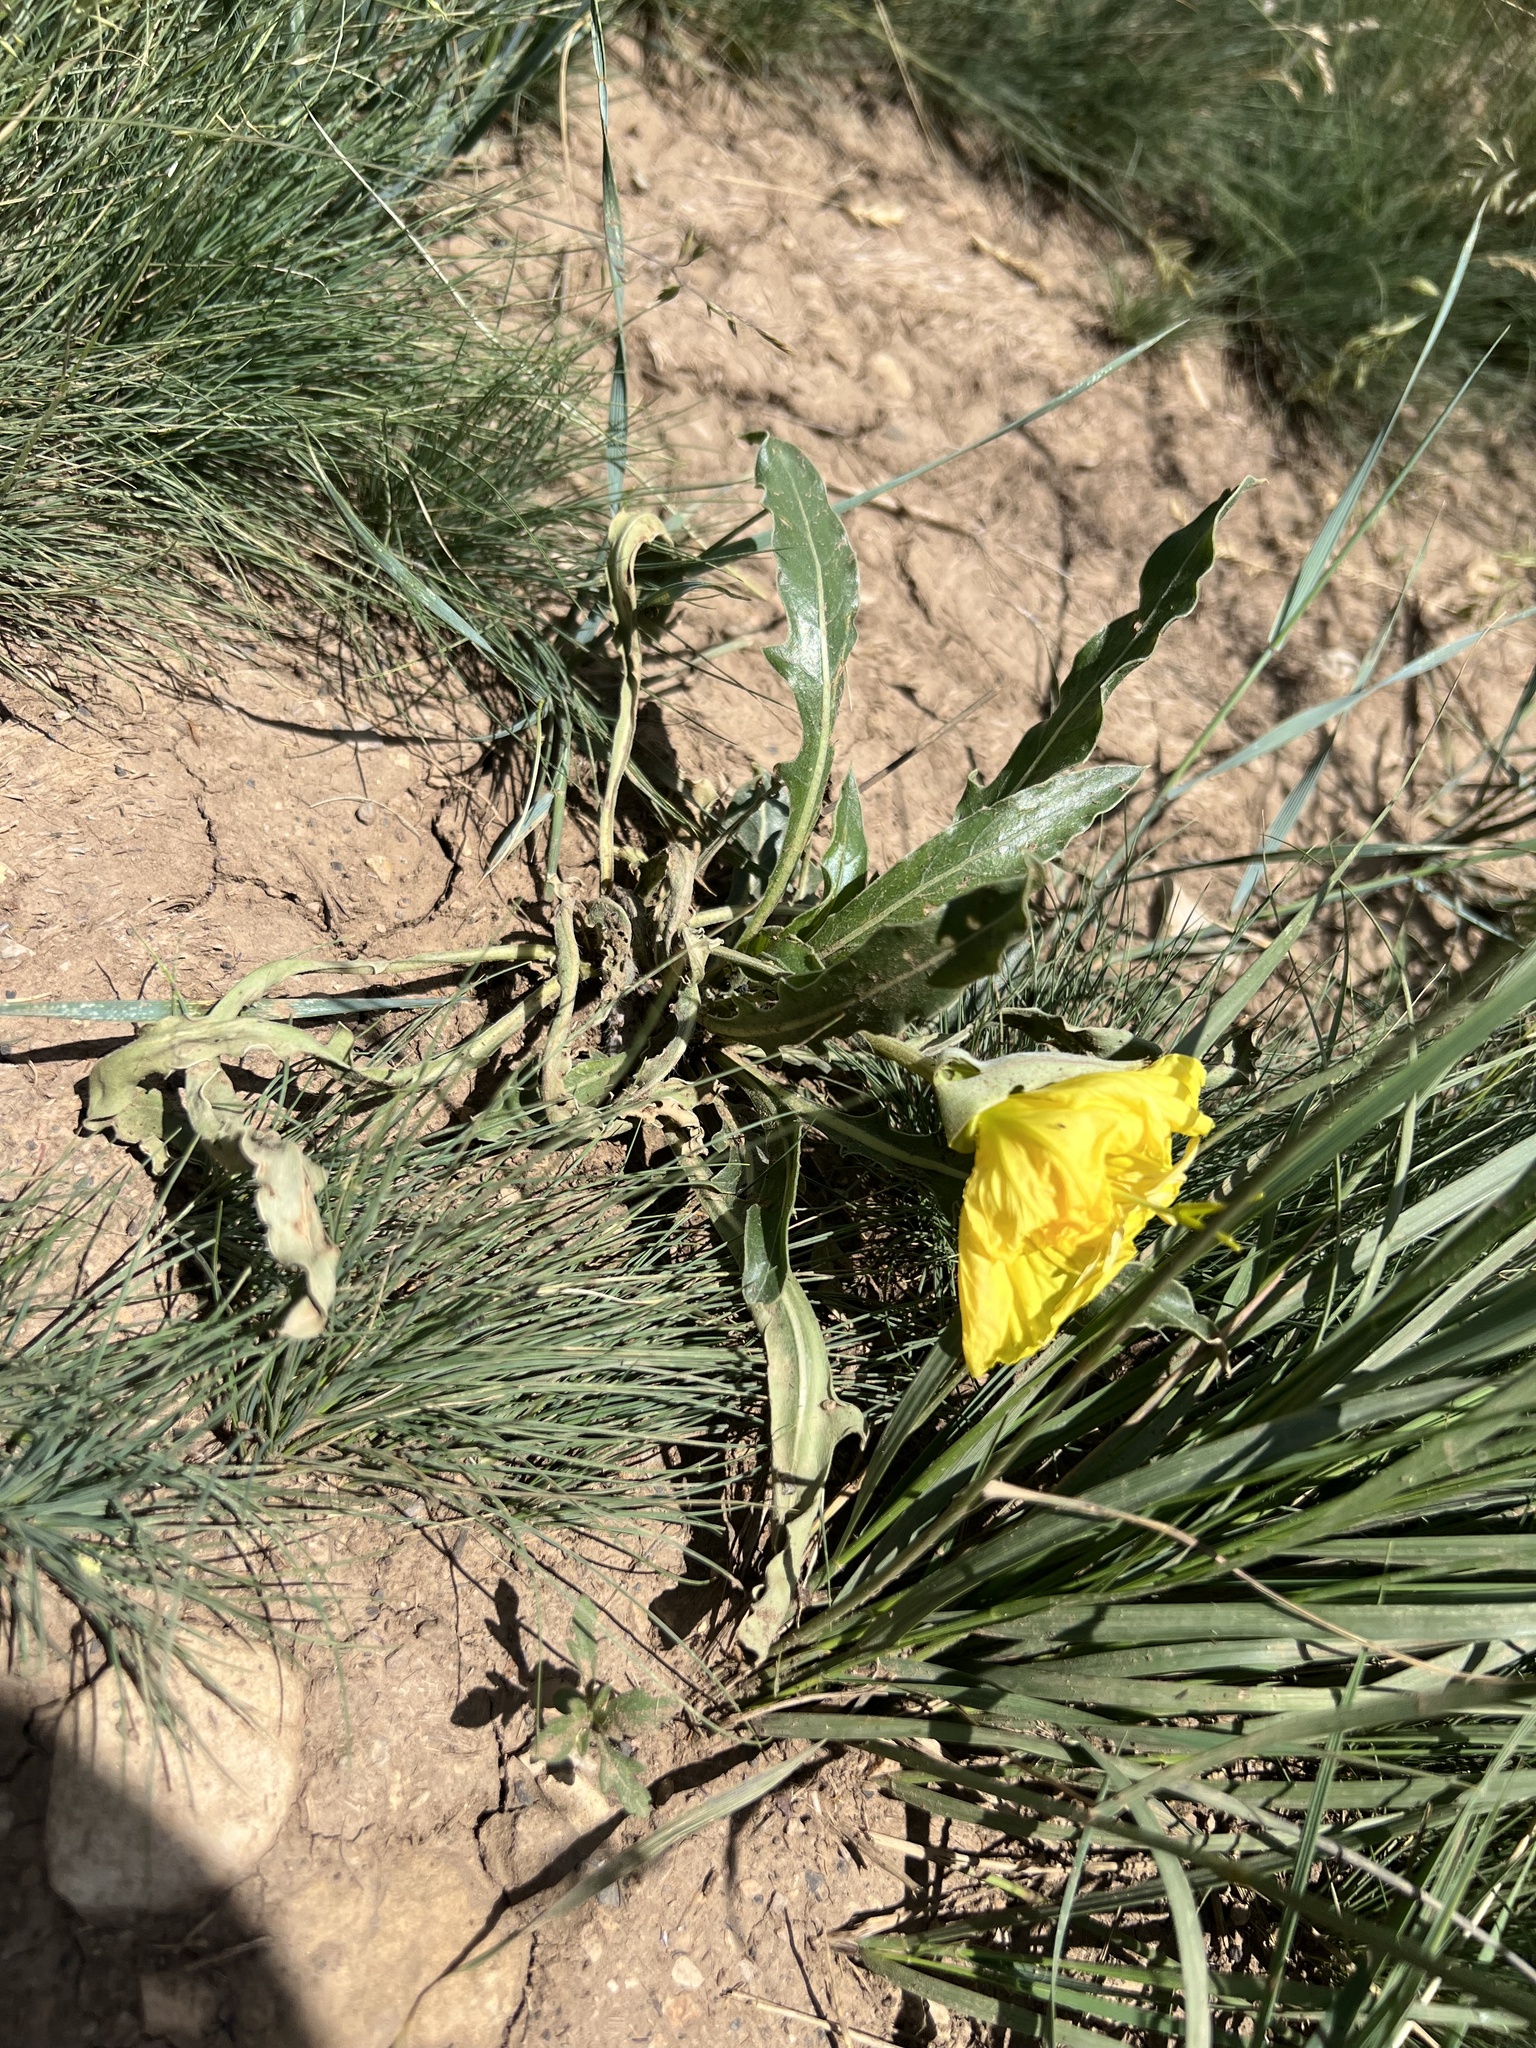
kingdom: Plantae
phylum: Tracheophyta
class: Magnoliopsida
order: Myrtales
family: Onagraceae
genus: Oenothera
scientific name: Oenothera howardii
